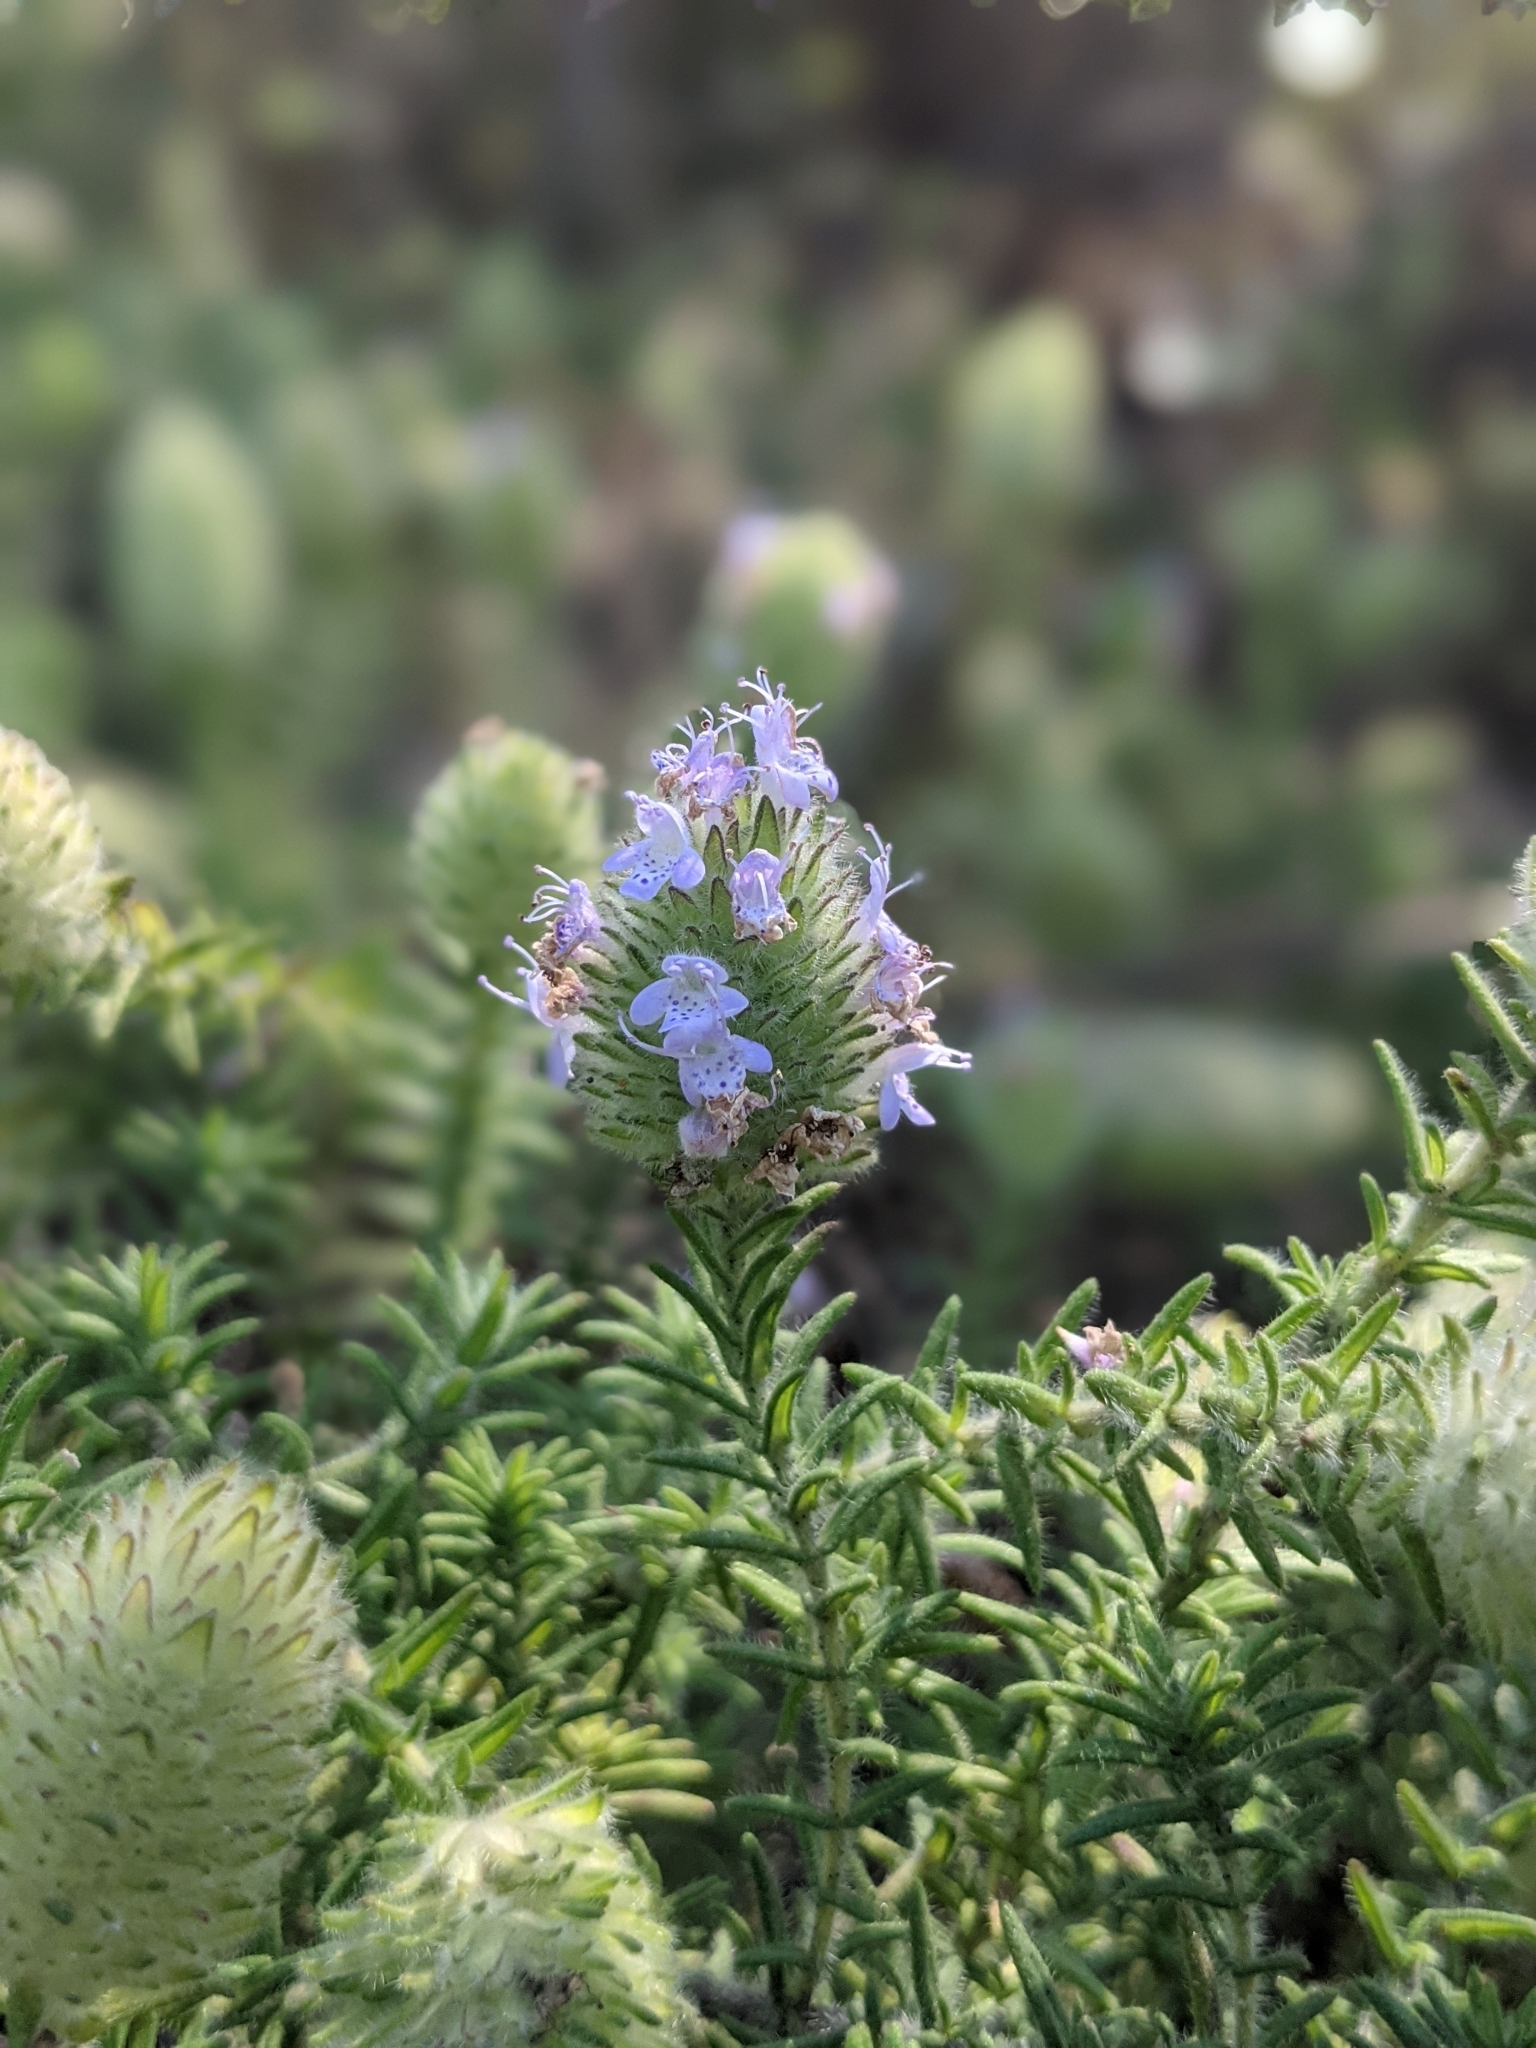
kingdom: Plantae
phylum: Tracheophyta
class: Magnoliopsida
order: Lamiales
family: Lamiaceae
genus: Piloblephis
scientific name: Piloblephis rigida
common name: Wild pennyroyal
